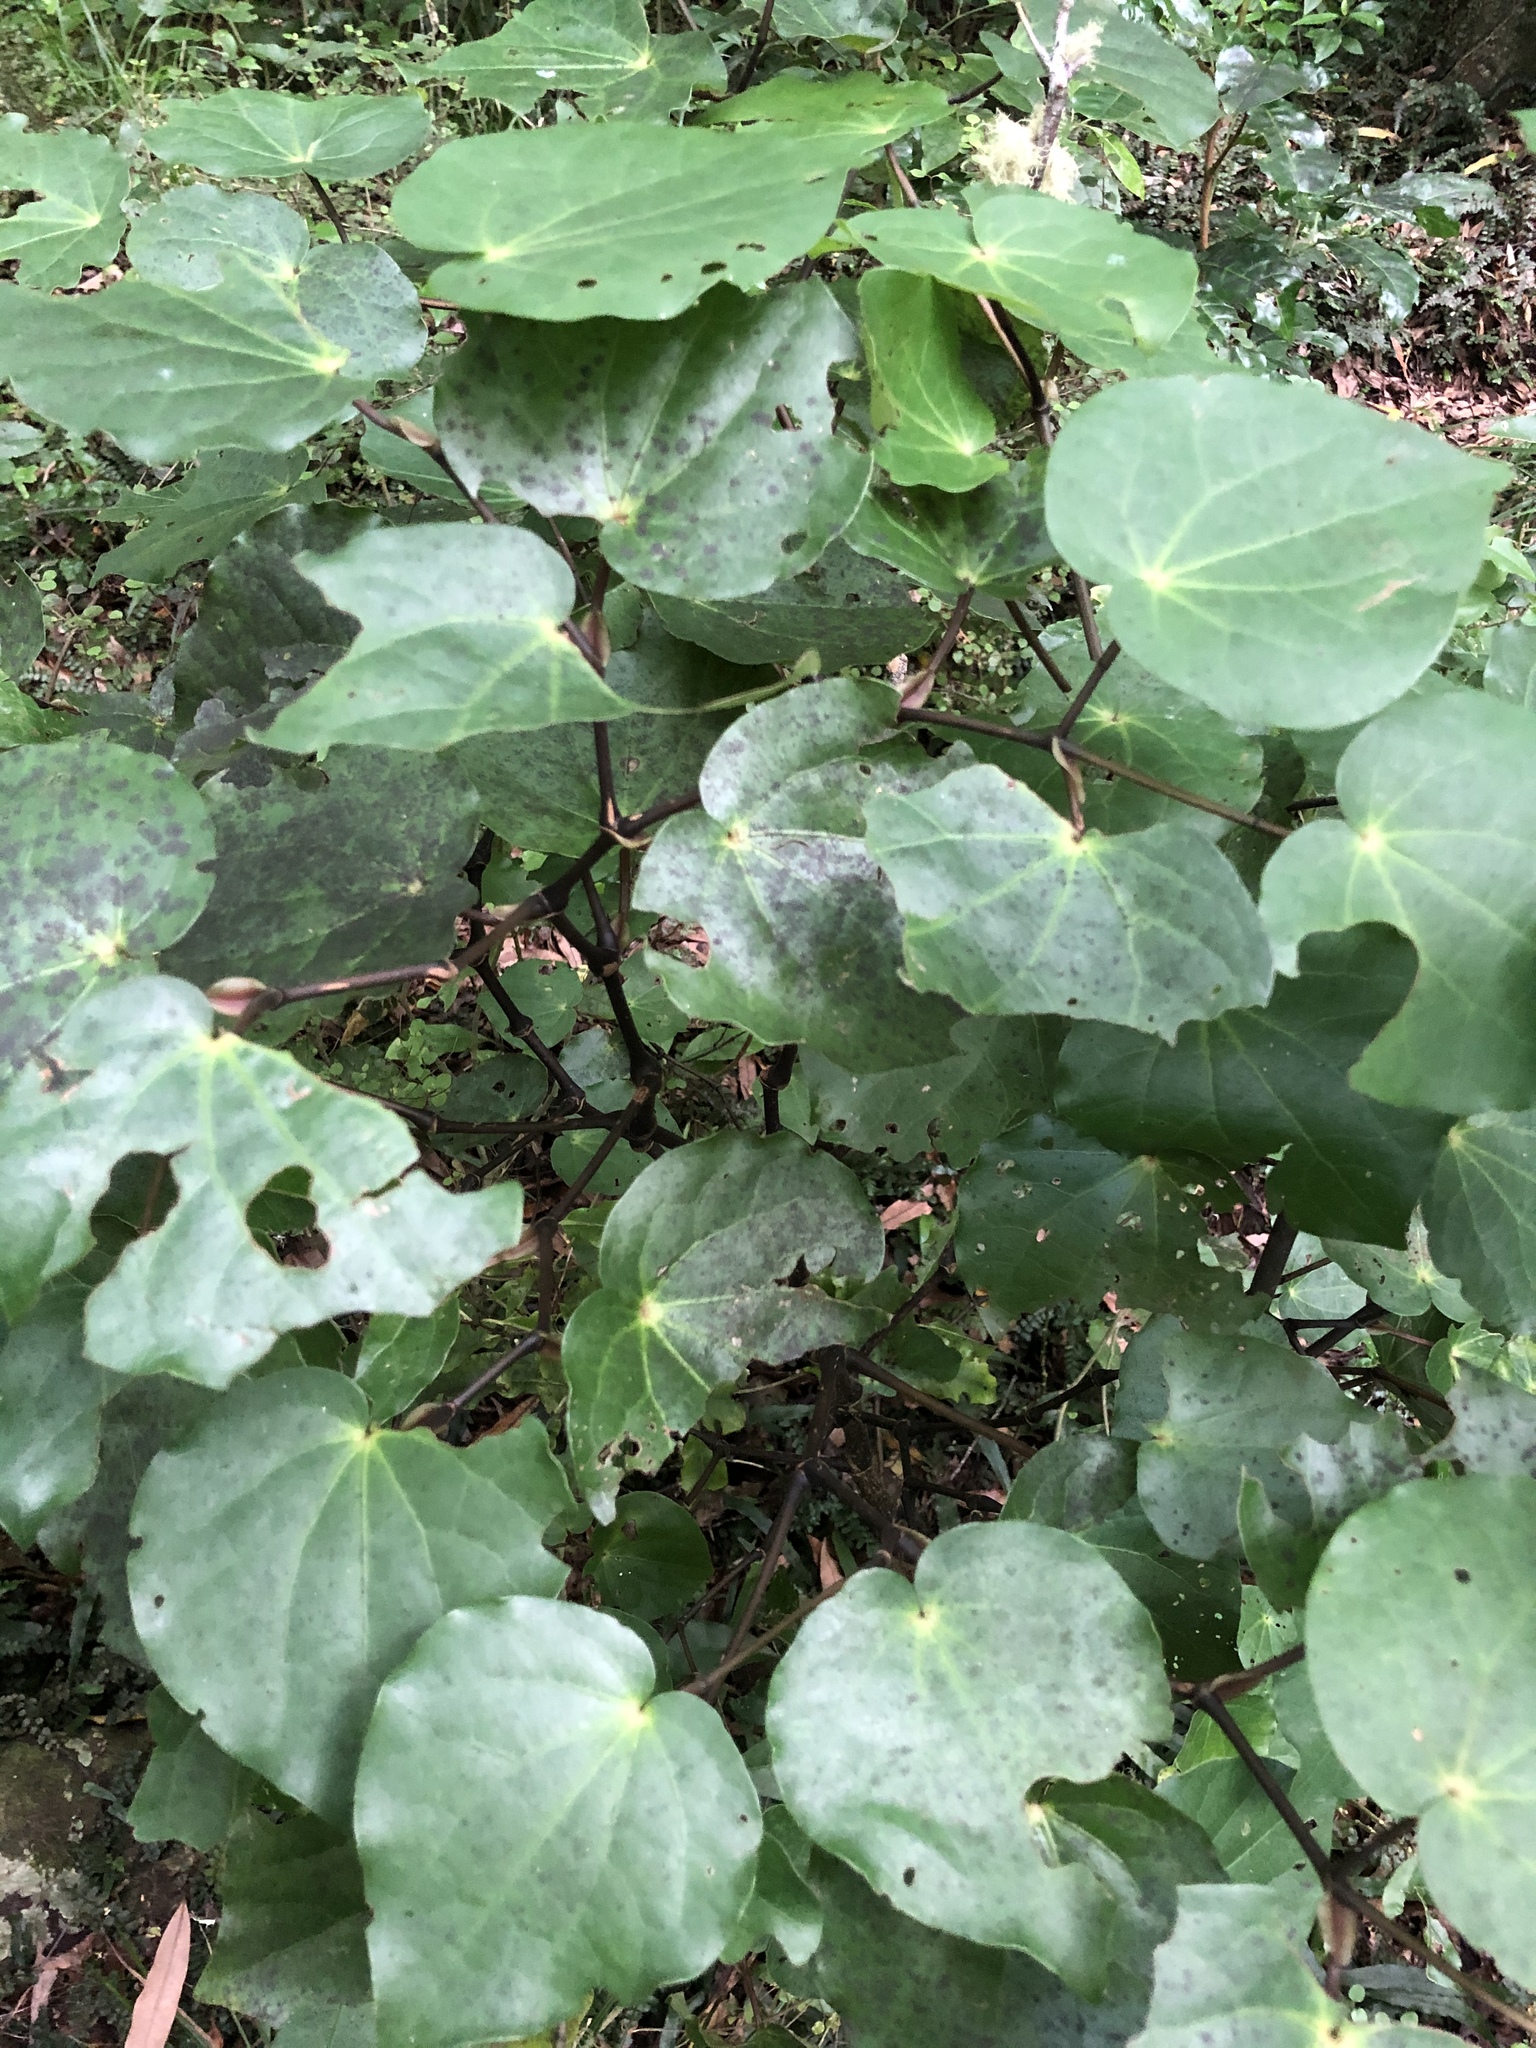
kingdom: Plantae
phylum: Tracheophyta
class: Magnoliopsida
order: Piperales
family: Piperaceae
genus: Macropiper
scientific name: Macropiper excelsum
